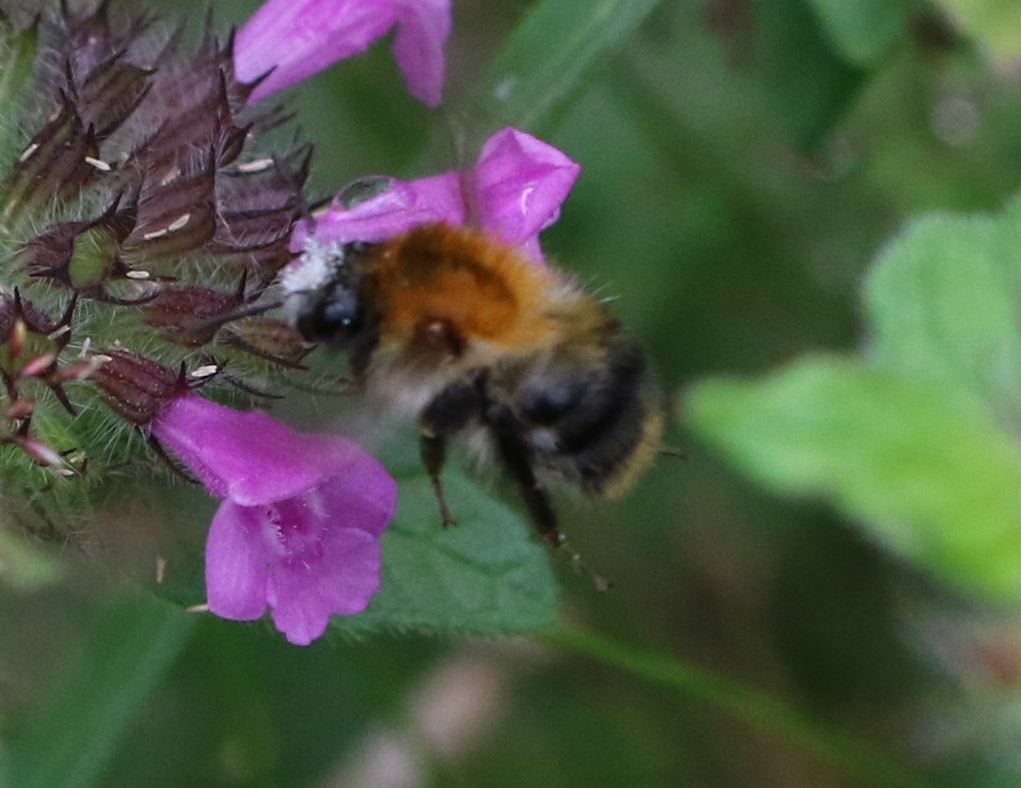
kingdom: Animalia
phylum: Arthropoda
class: Insecta
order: Hymenoptera
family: Apidae
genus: Bombus
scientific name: Bombus pascuorum
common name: Common carder bee
